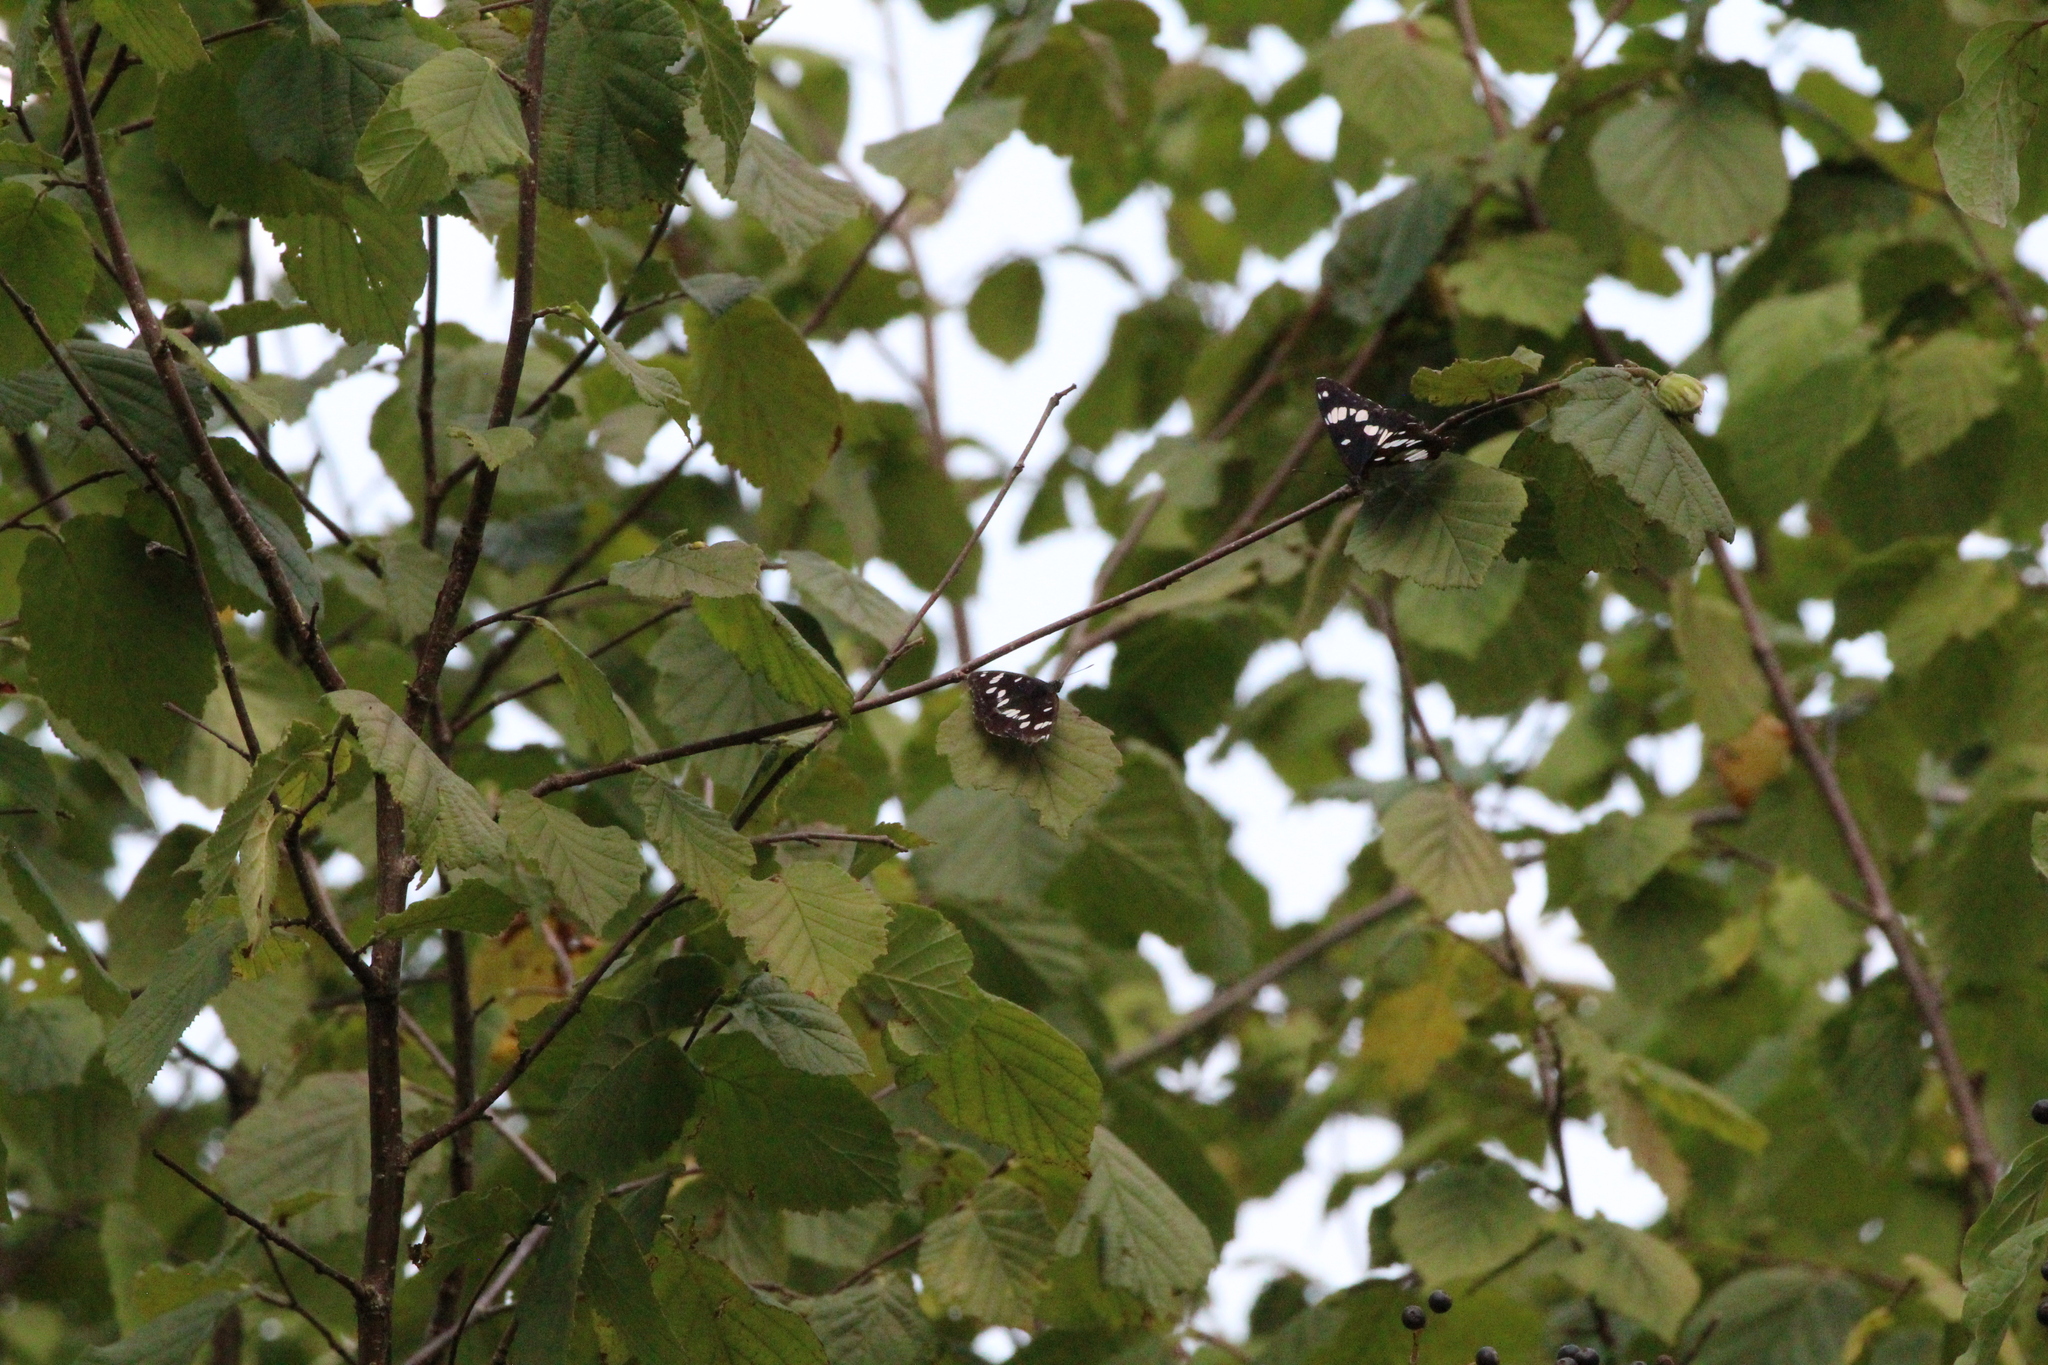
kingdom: Animalia
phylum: Arthropoda
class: Insecta
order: Lepidoptera
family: Nymphalidae
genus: Limenitis
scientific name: Limenitis reducta
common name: Southern white admiral
